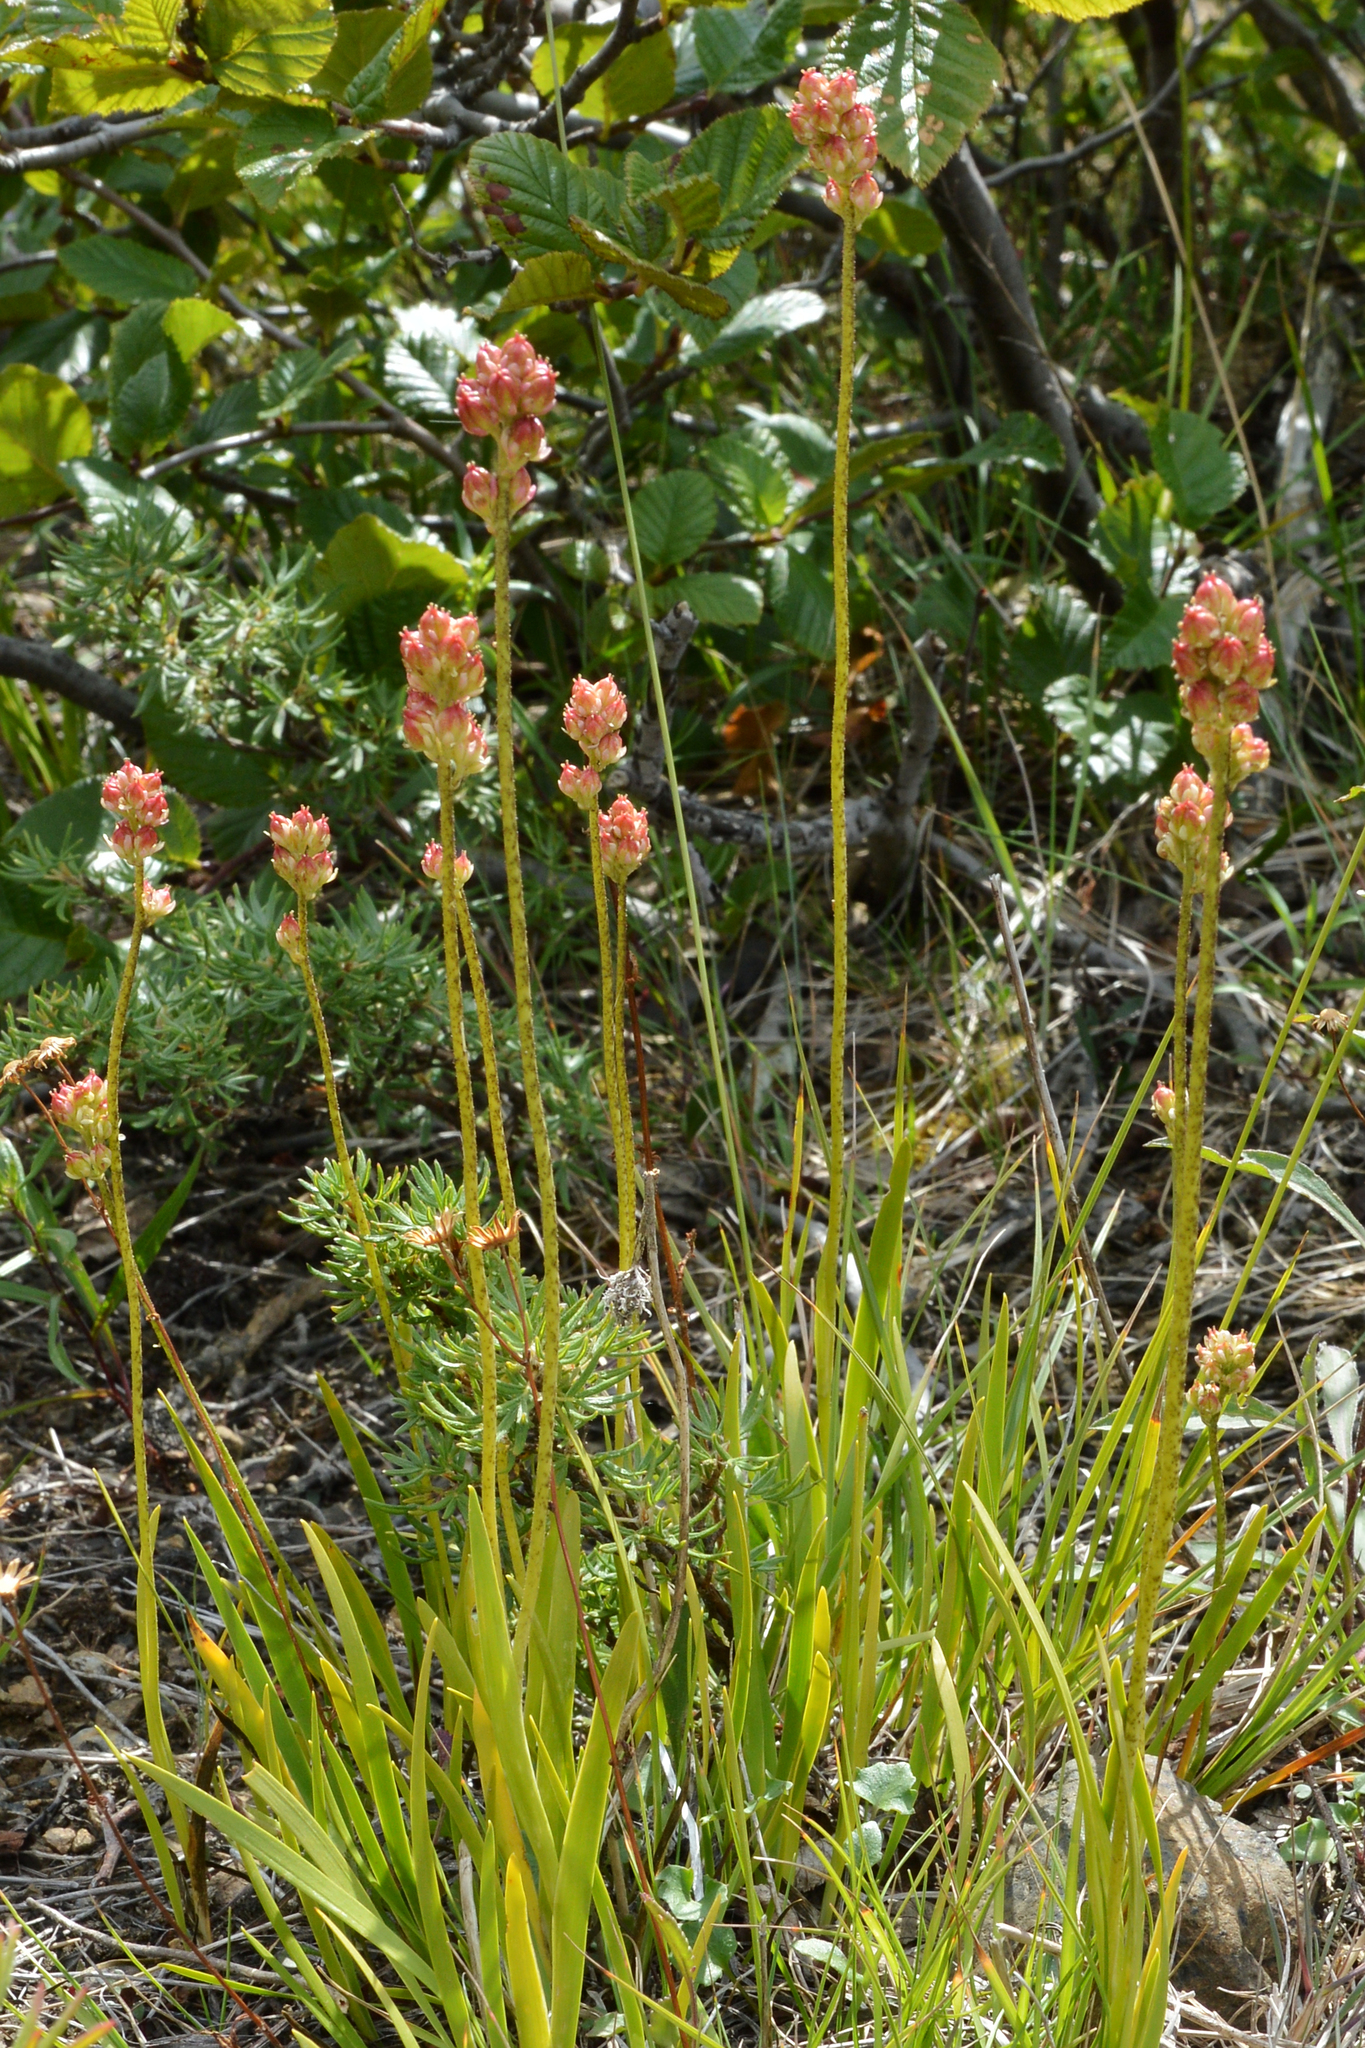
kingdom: Plantae
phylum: Tracheophyta
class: Liliopsida
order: Alismatales
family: Tofieldiaceae
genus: Triantha
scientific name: Triantha glutinosa
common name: Glutinous tofieldia
